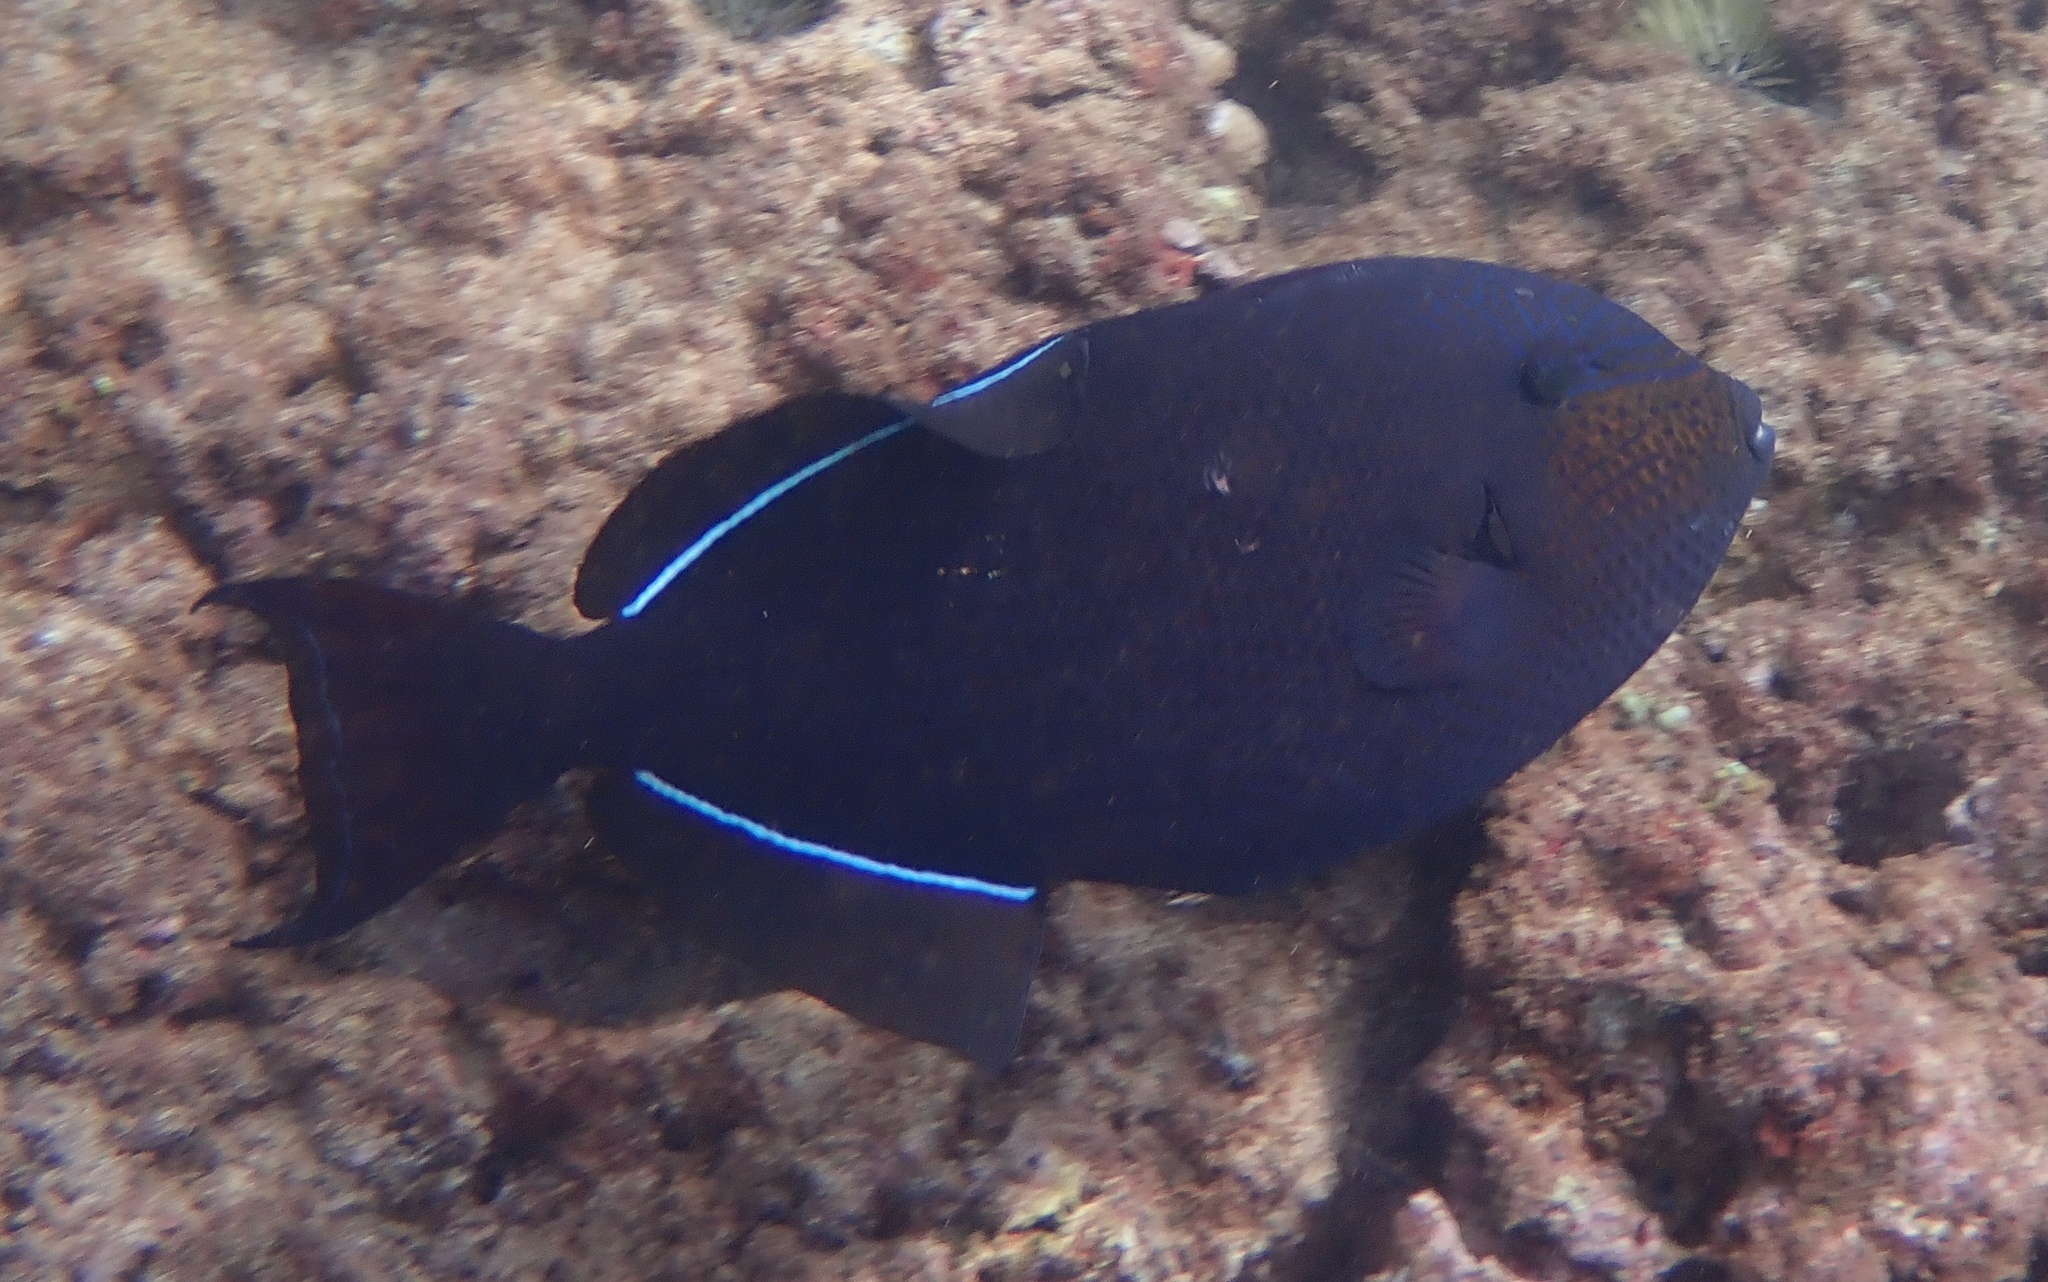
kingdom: Animalia
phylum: Chordata
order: Tetraodontiformes
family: Balistidae
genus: Melichthys
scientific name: Melichthys niger
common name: Black durgon
